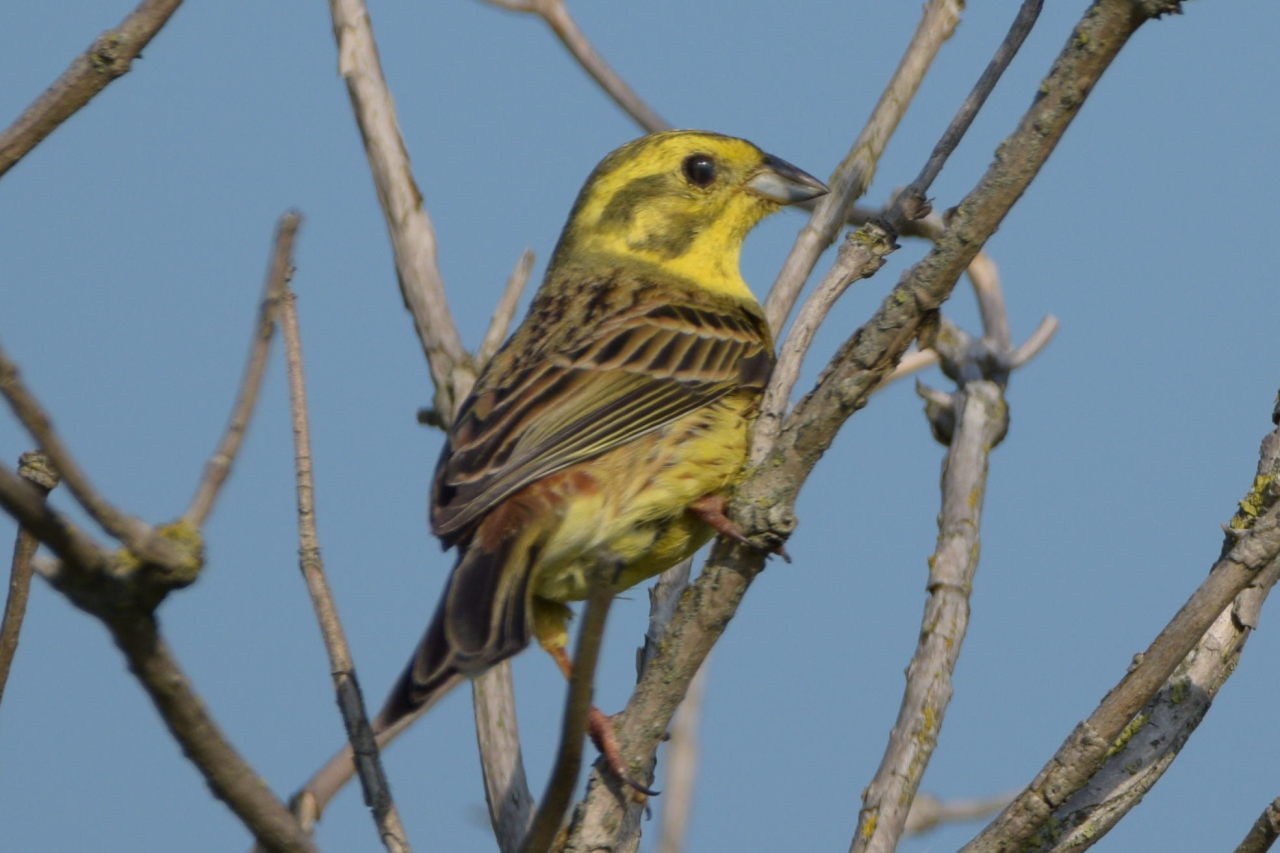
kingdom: Animalia
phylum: Chordata
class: Aves
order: Passeriformes
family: Emberizidae
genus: Emberiza
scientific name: Emberiza citrinella
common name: Yellowhammer
